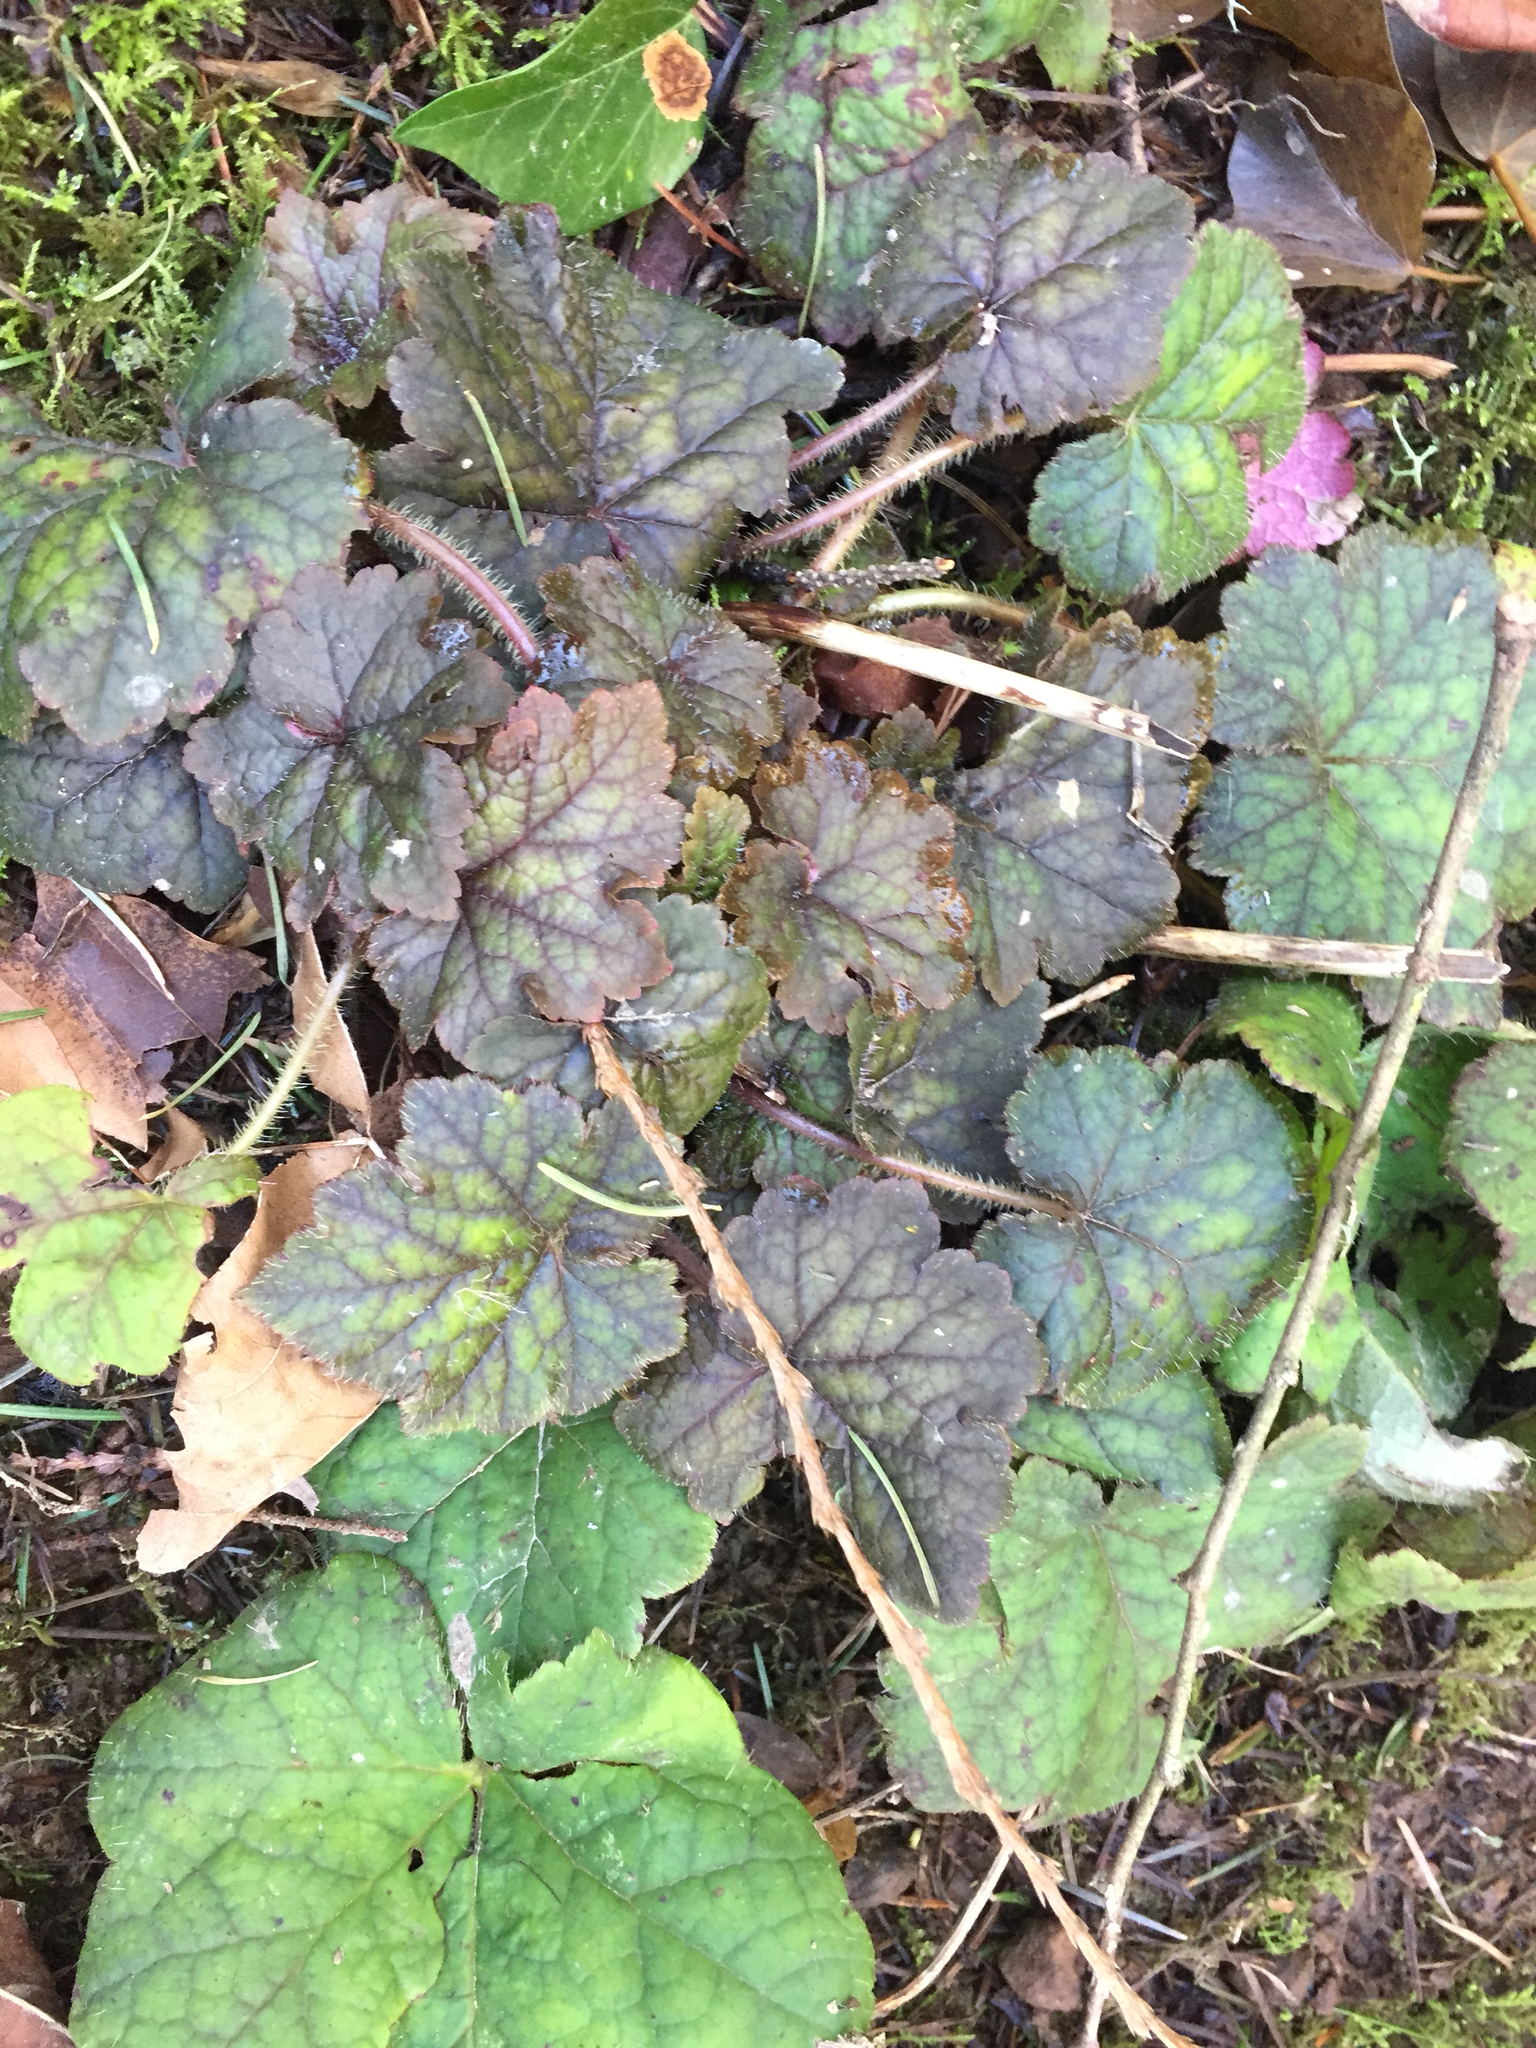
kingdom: Plantae
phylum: Tracheophyta
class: Magnoliopsida
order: Saxifragales
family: Saxifragaceae
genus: Tellima
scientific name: Tellima grandiflora
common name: Fringecups
